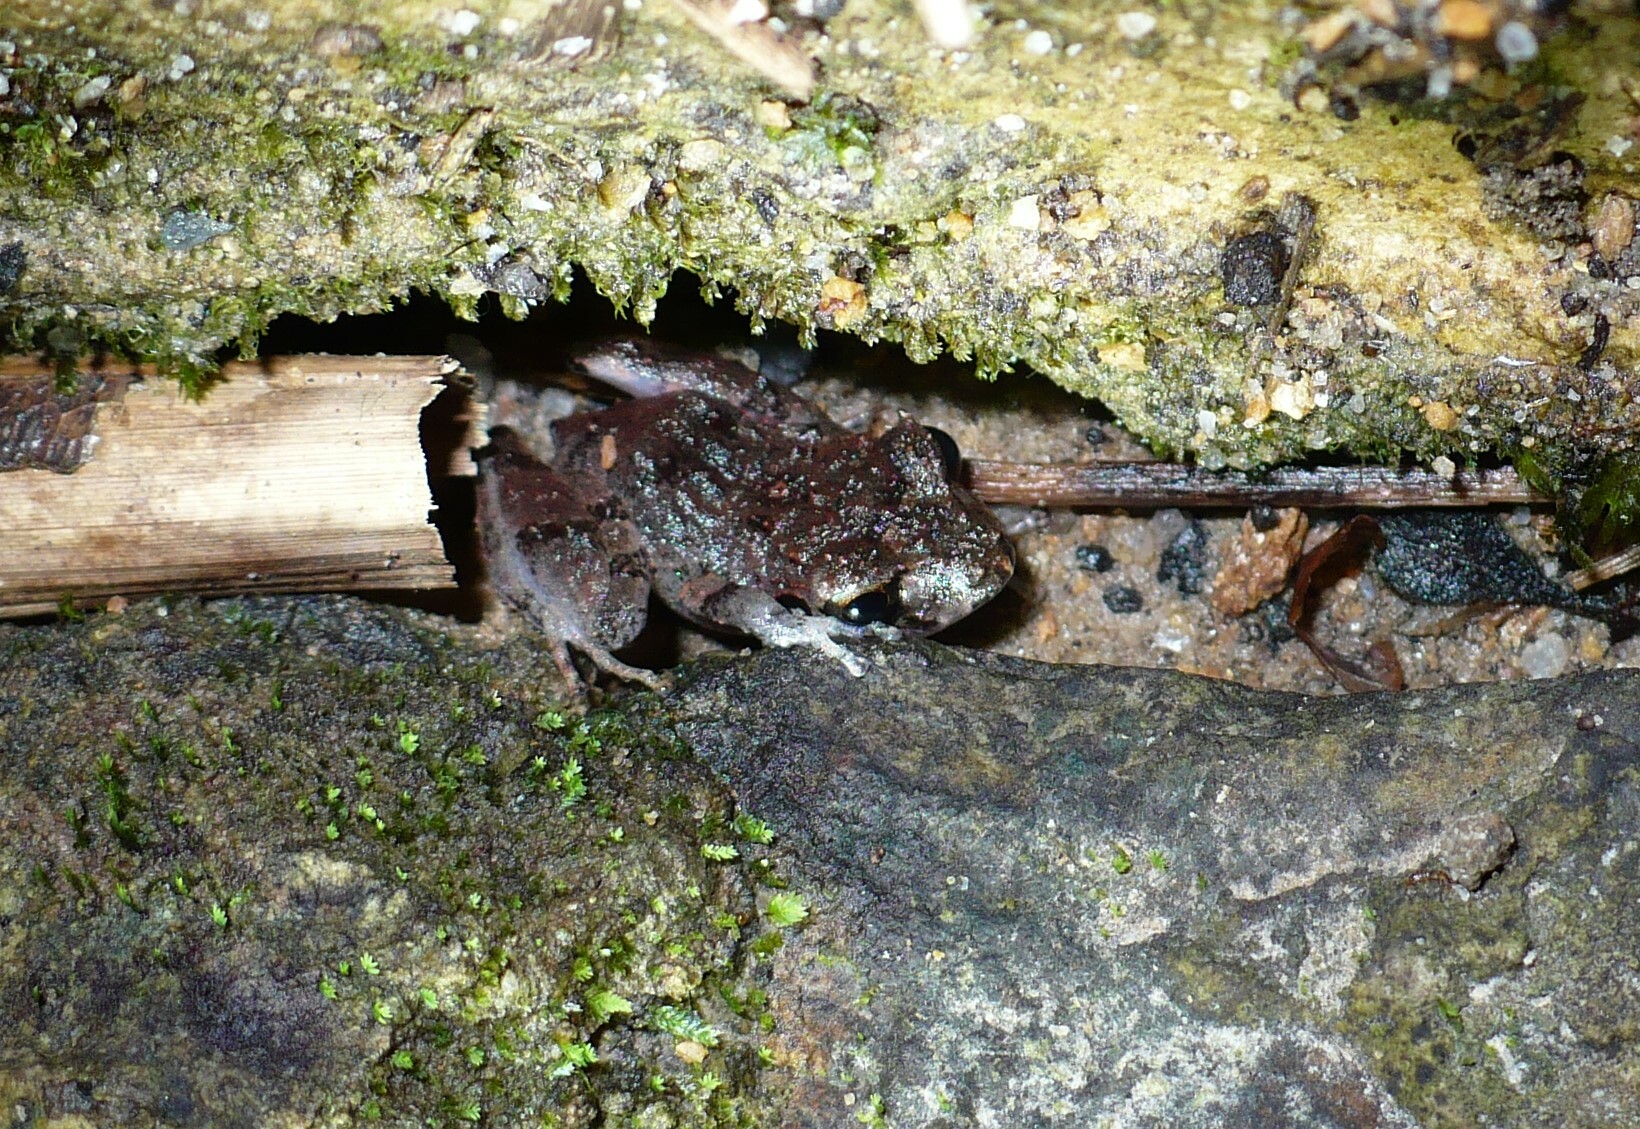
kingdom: Animalia
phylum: Chordata
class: Amphibia
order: Anura
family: Craugastoridae
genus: Pristimantis
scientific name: Pristimantis urichi
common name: Lesser antilles robber frog
